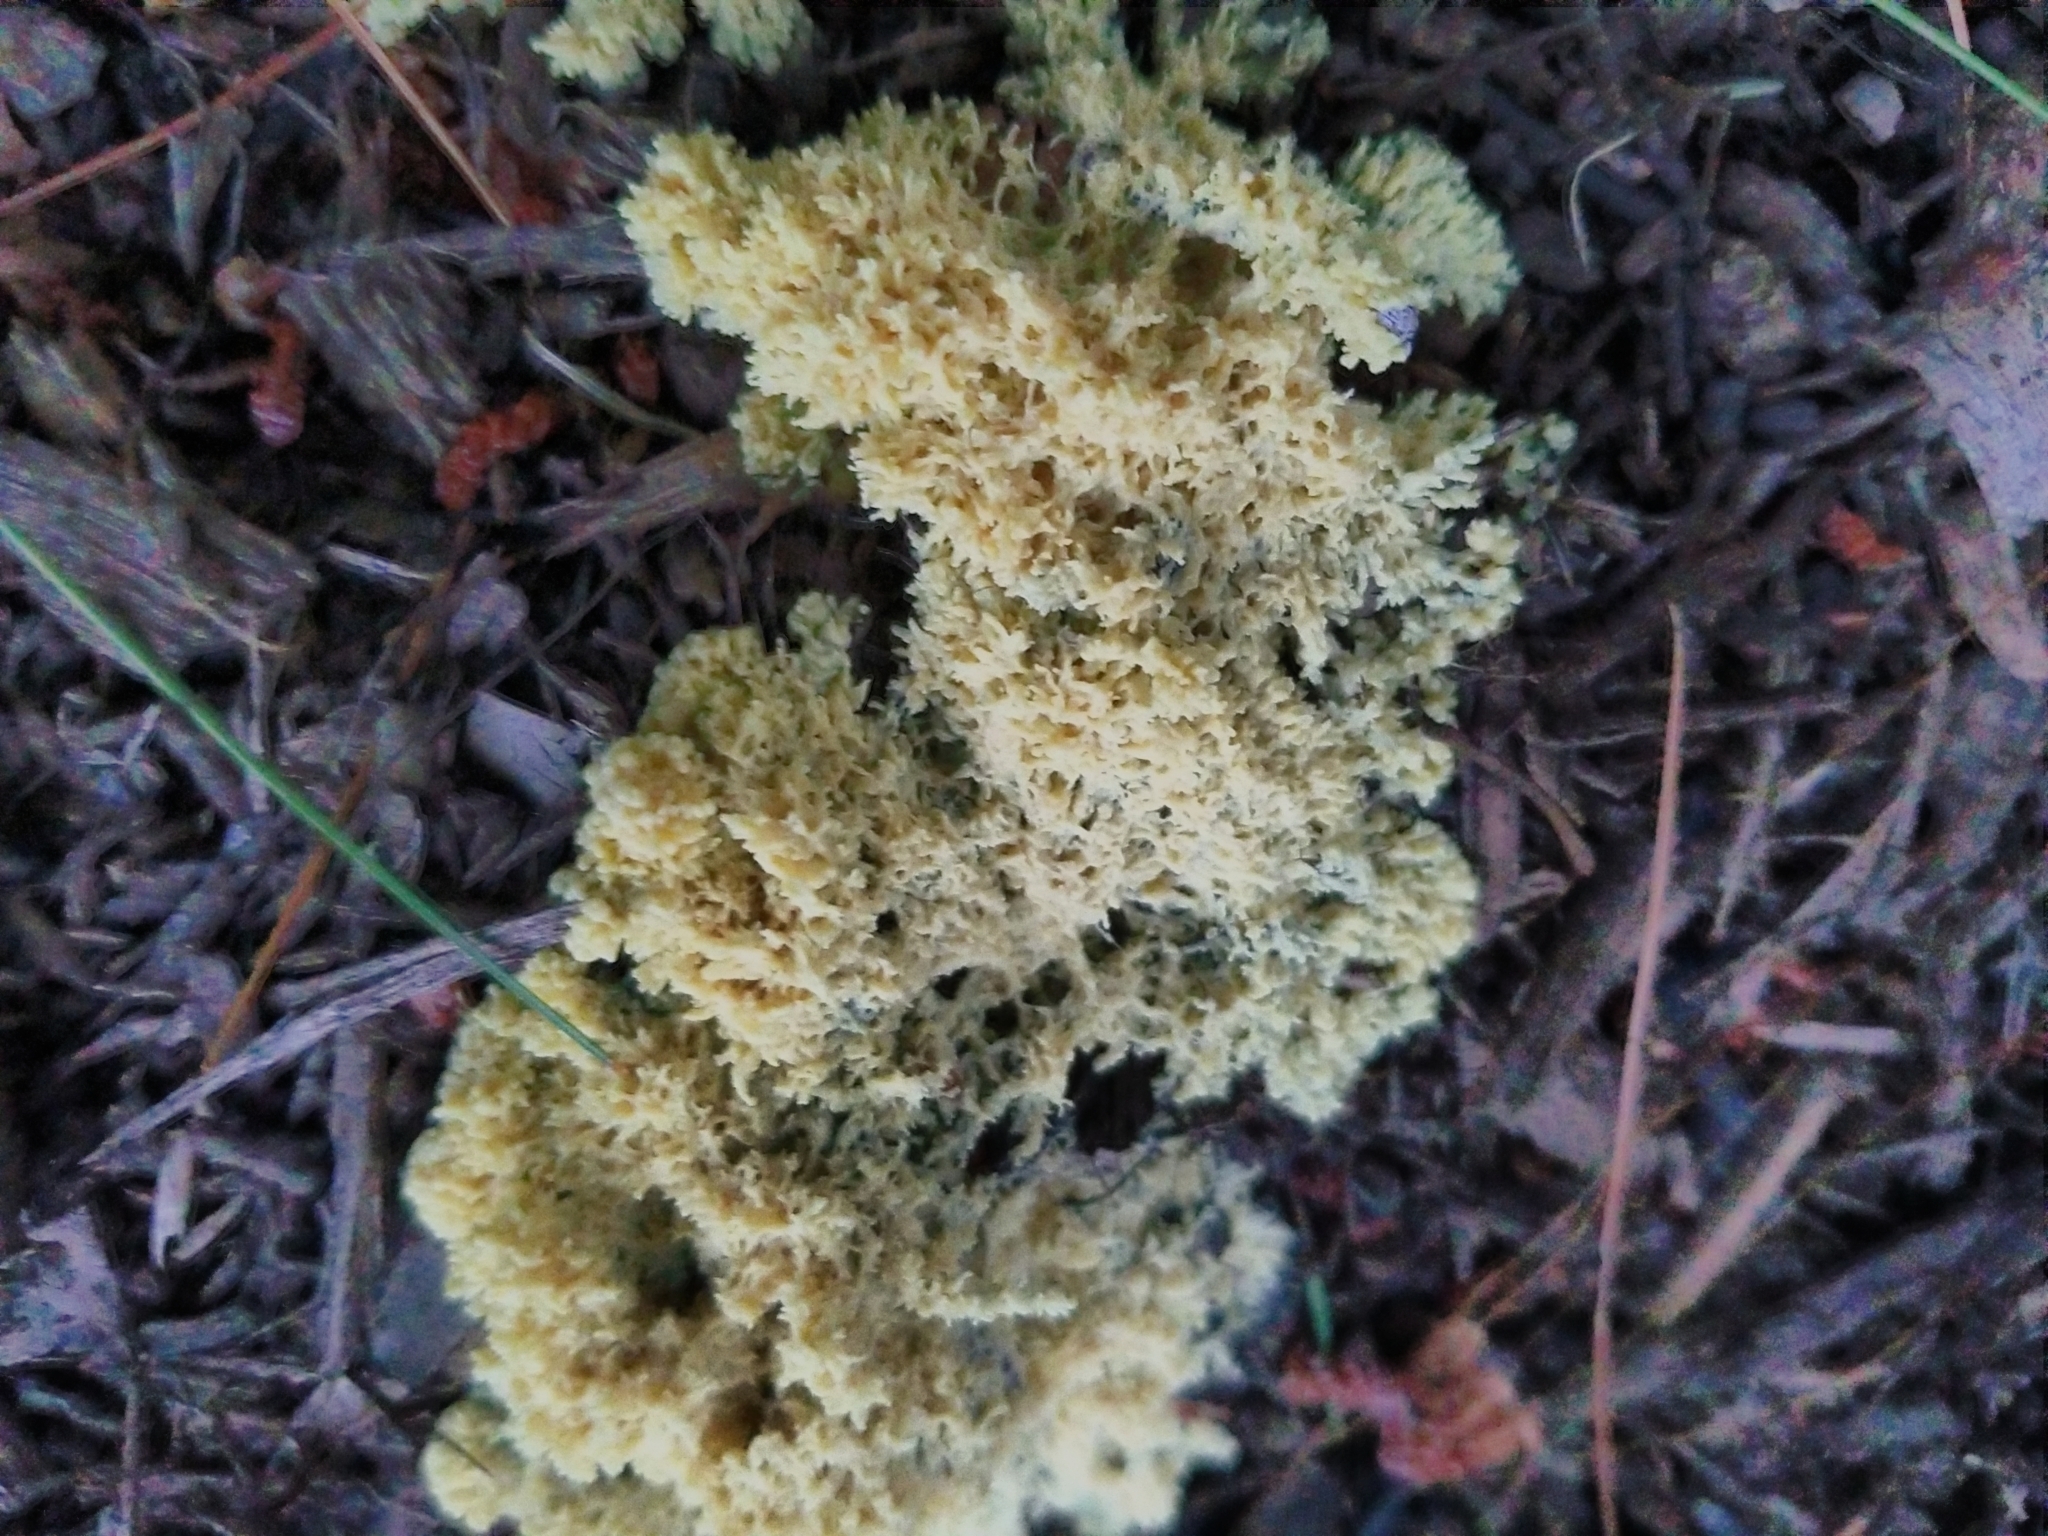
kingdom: Protozoa
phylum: Mycetozoa
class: Myxomycetes
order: Physarales
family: Physaraceae
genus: Fuligo
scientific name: Fuligo septica
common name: Dog vomit slime mold
